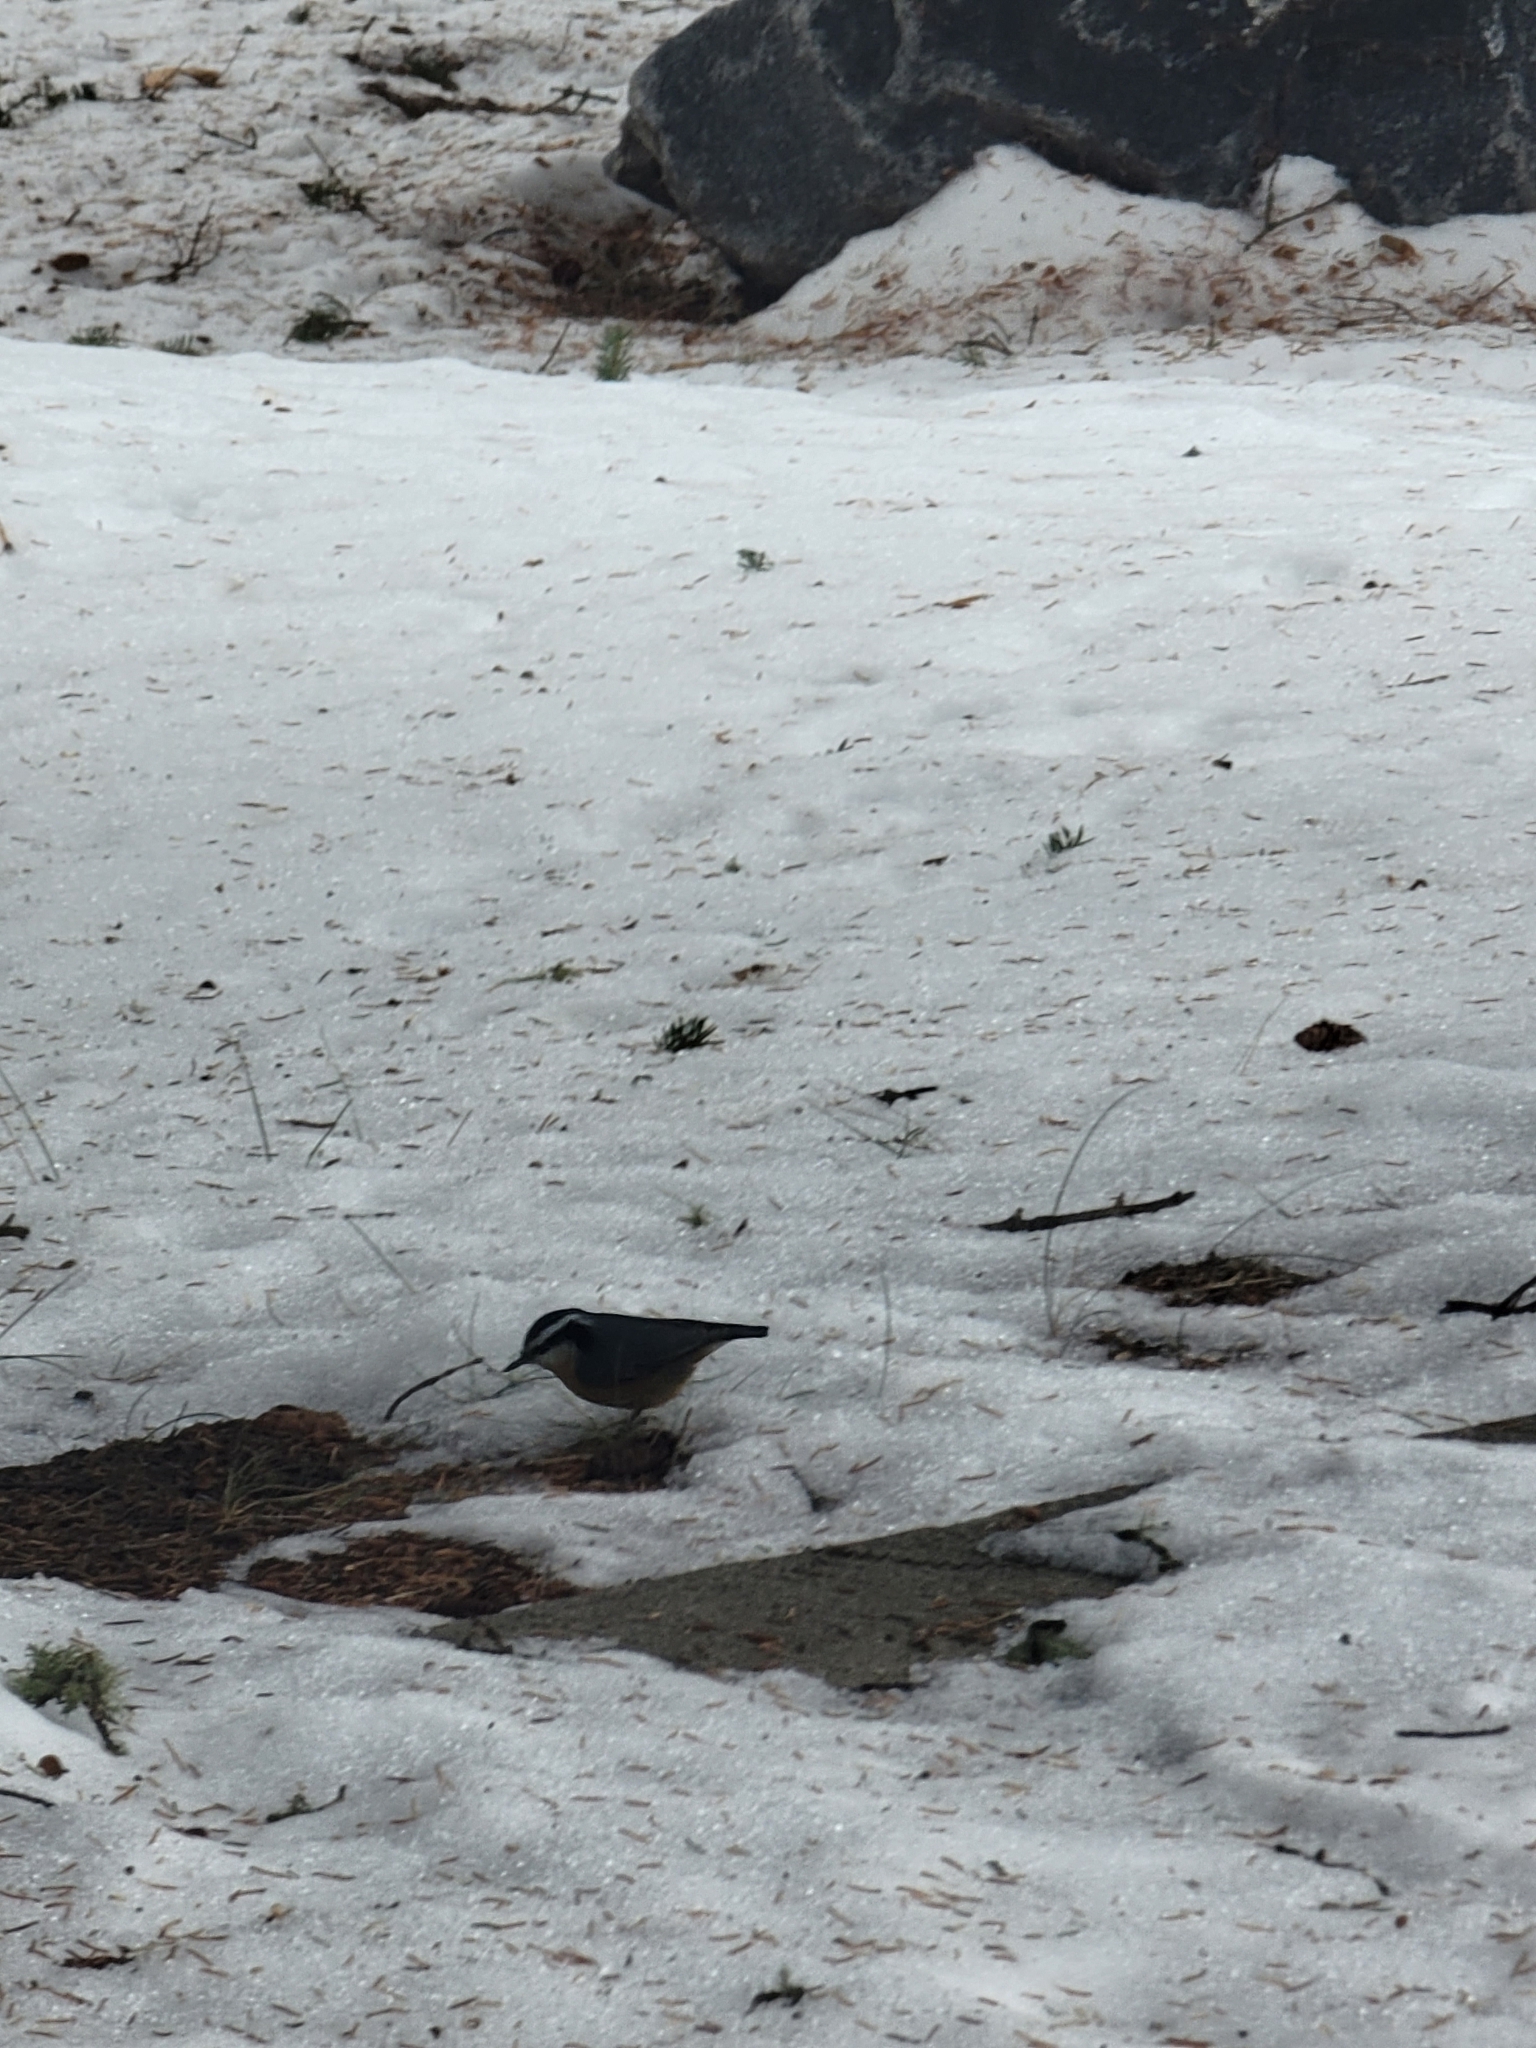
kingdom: Animalia
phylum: Chordata
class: Aves
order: Passeriformes
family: Sittidae
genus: Sitta
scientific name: Sitta canadensis
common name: Red-breasted nuthatch
